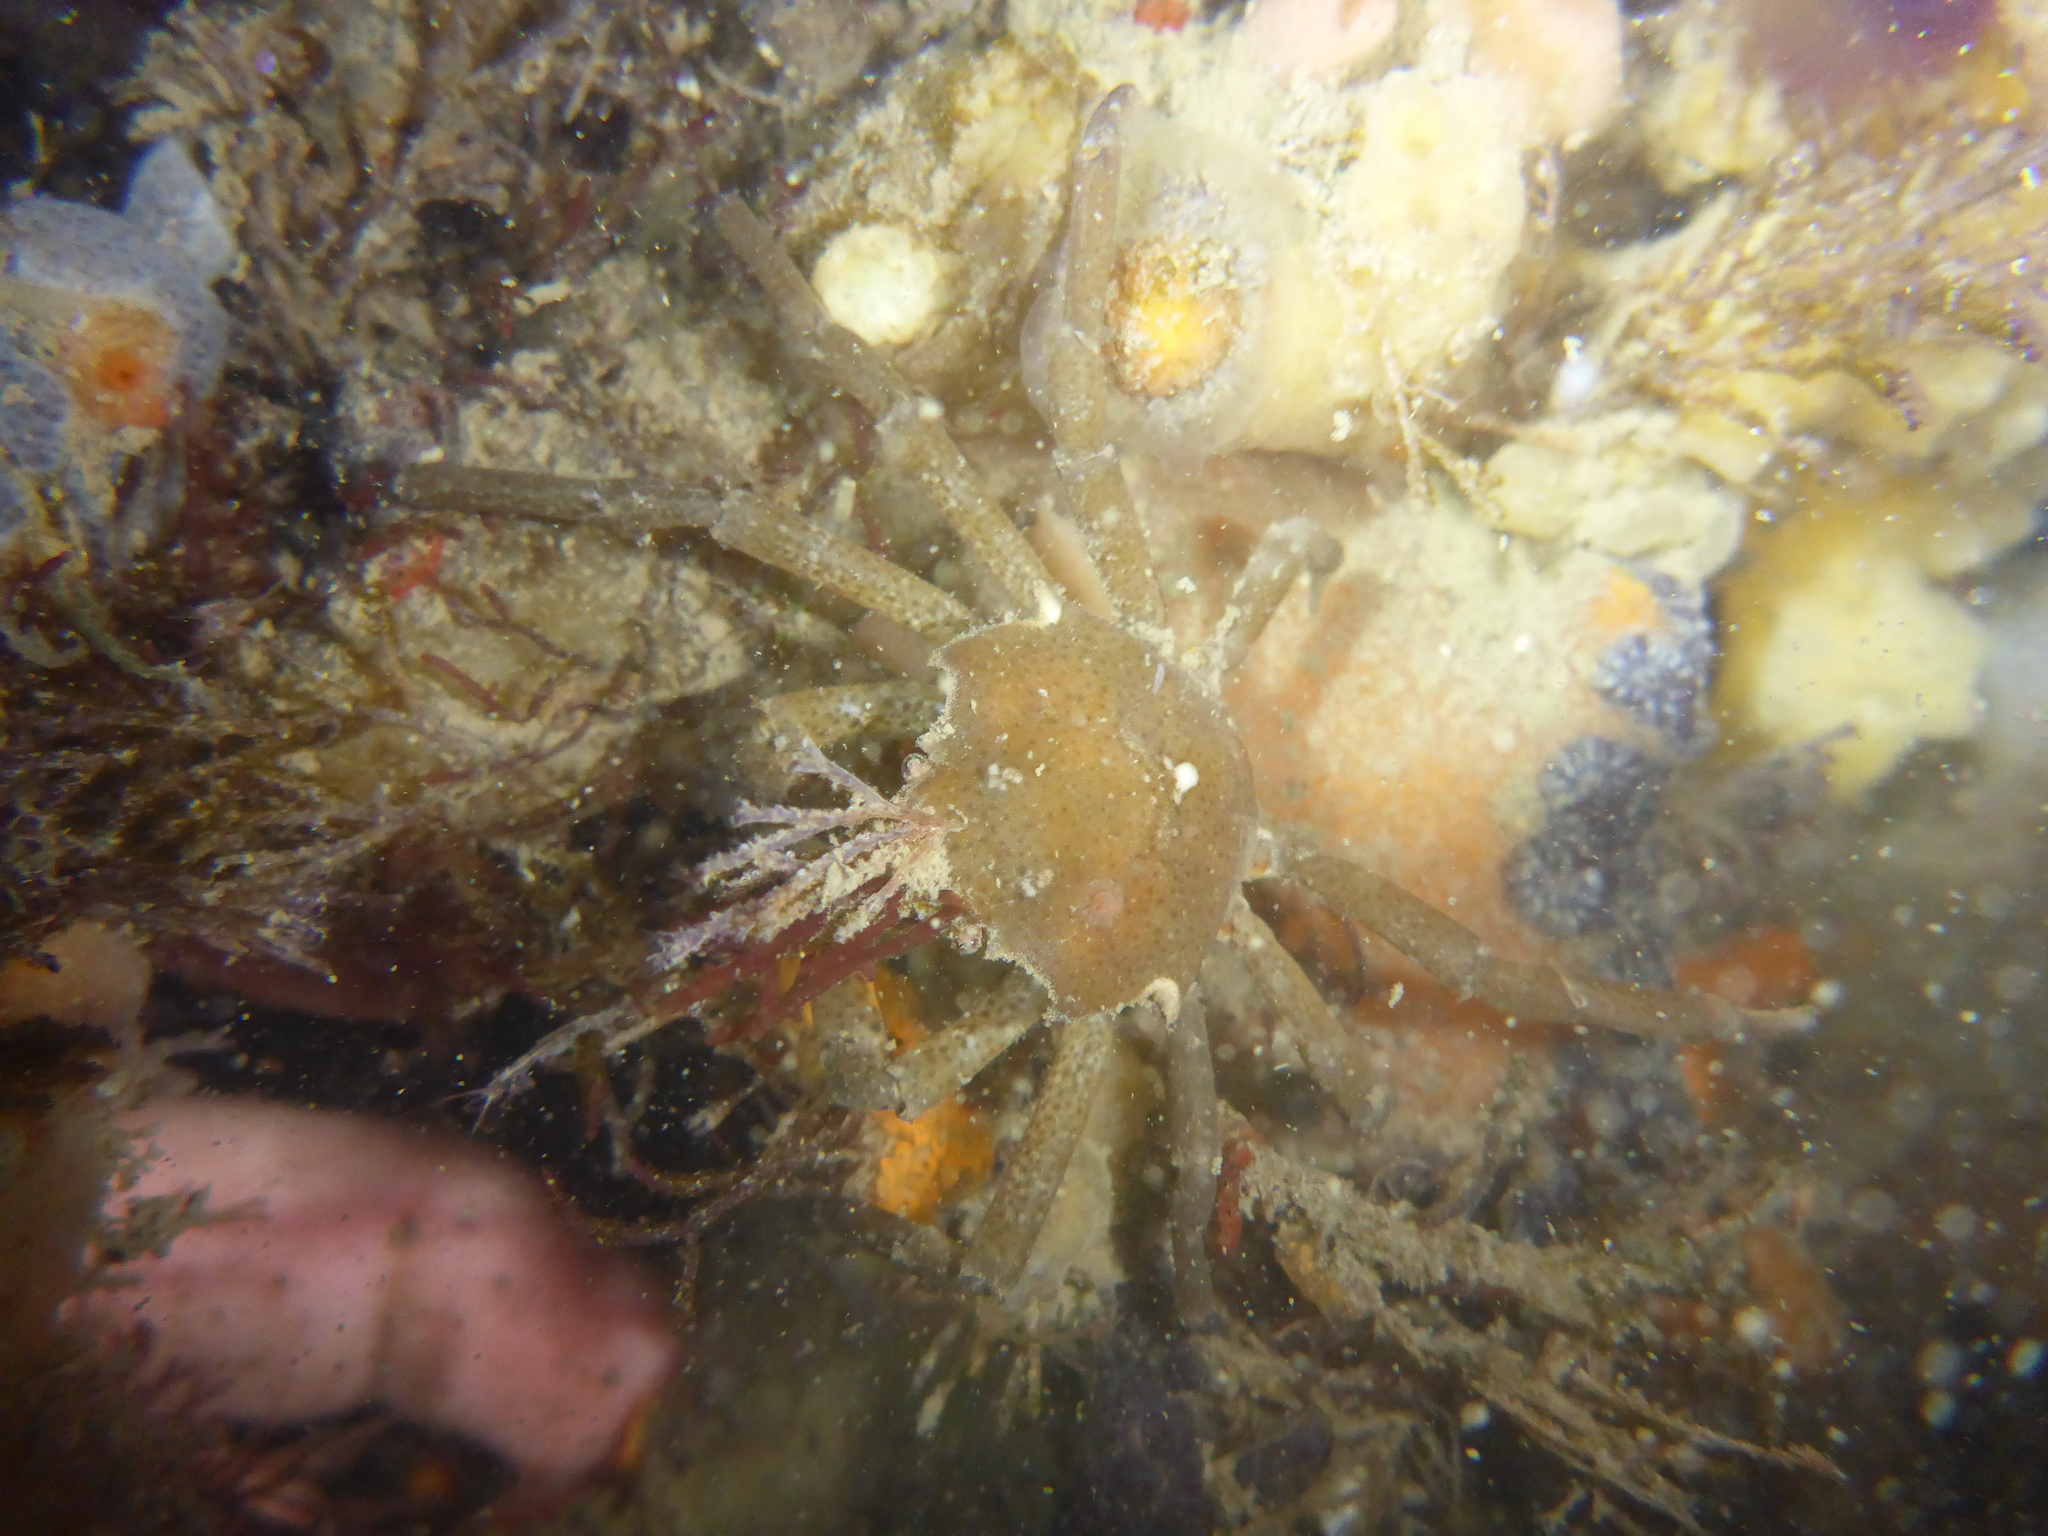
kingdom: Animalia
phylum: Arthropoda
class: Malacostraca
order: Decapoda
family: Epialtidae
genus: Pugettia
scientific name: Pugettia producta
